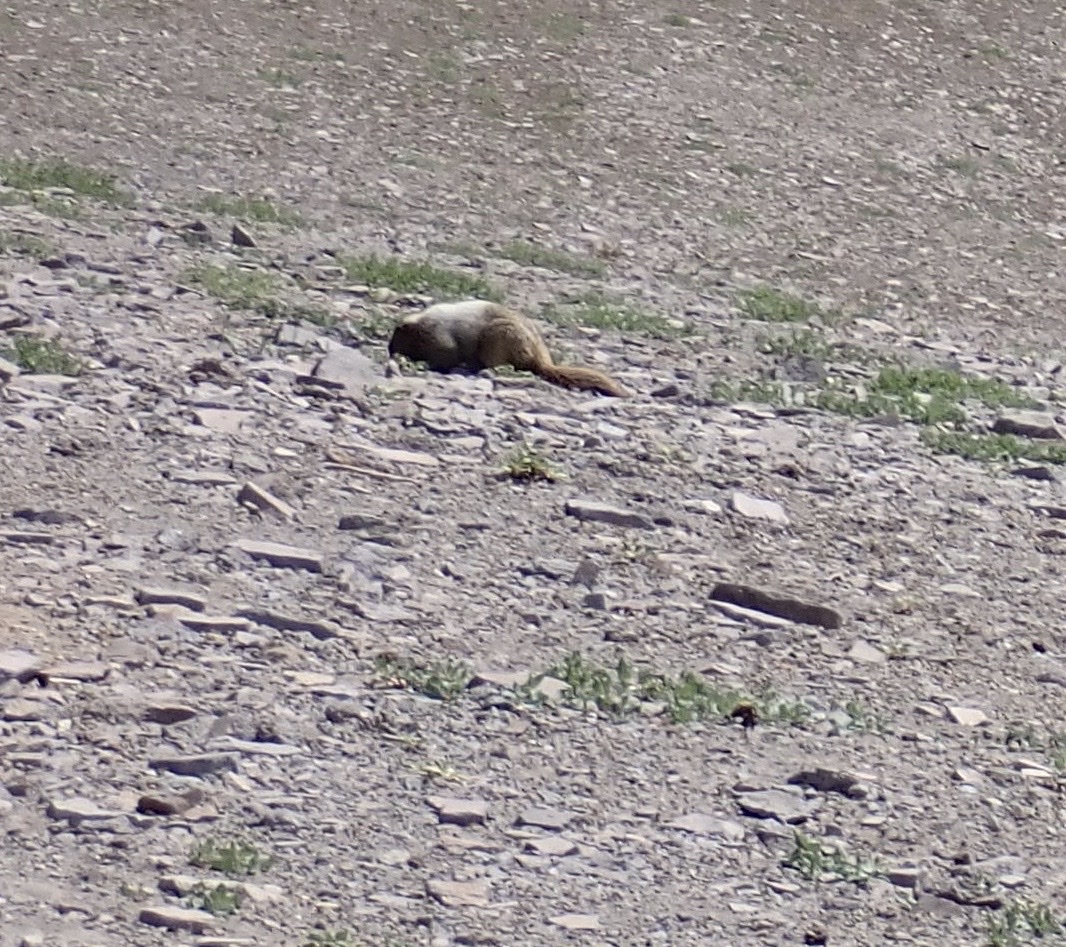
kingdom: Animalia
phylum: Chordata
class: Mammalia
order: Rodentia
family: Sciuridae
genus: Marmota
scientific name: Marmota caligata
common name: Hoary marmot
